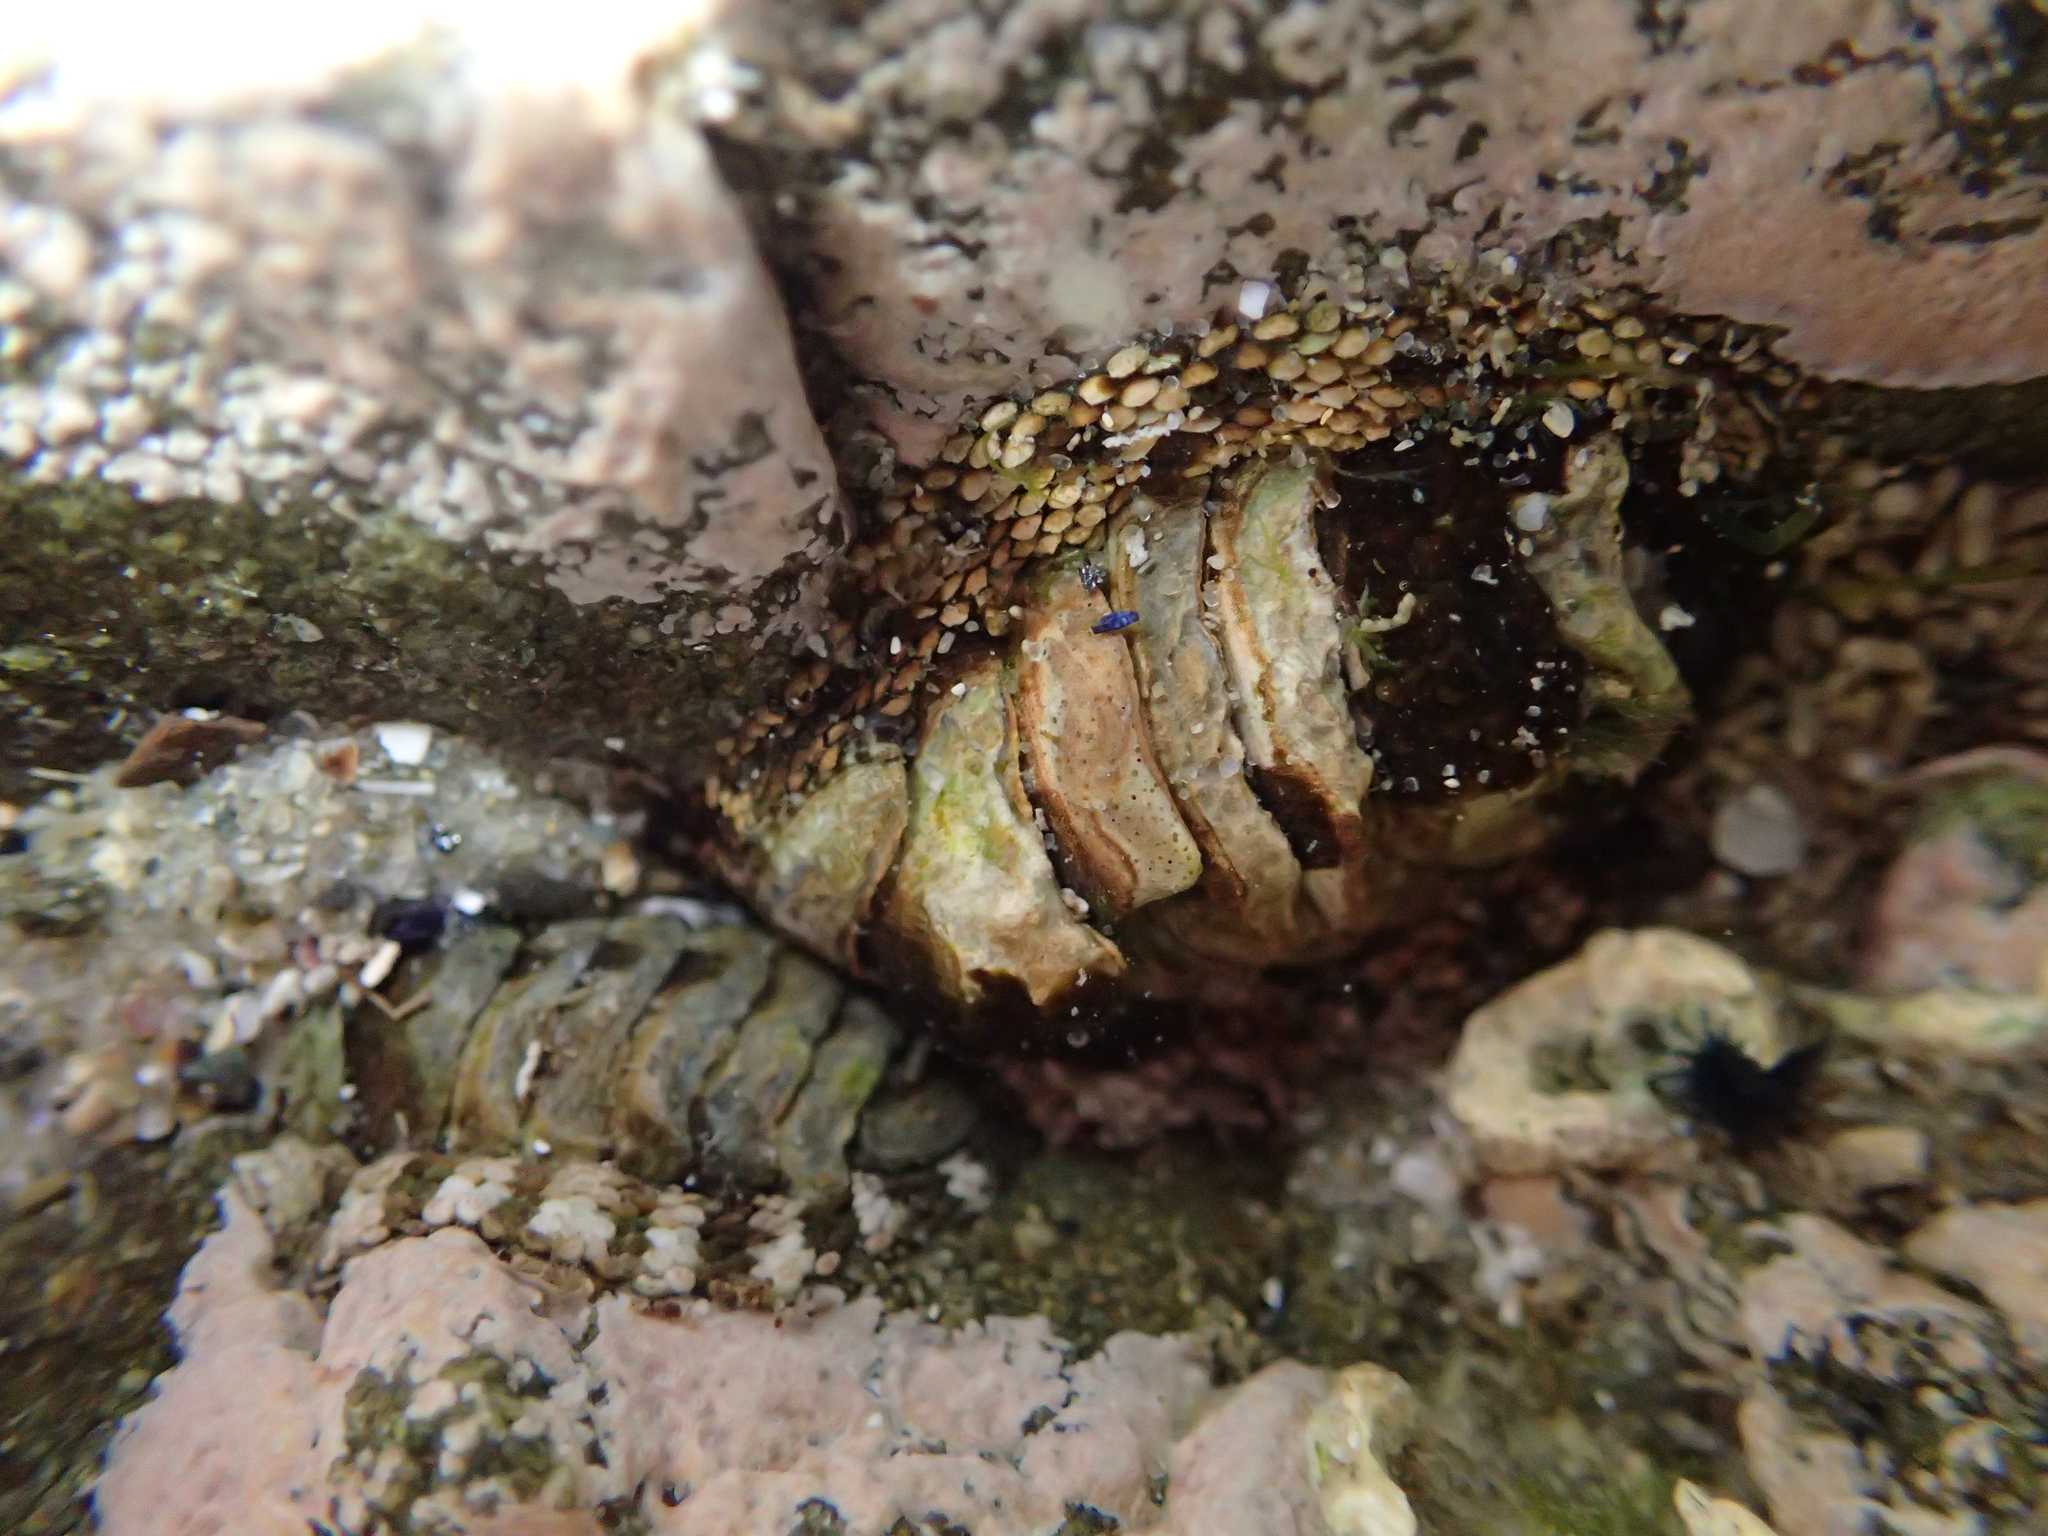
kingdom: Animalia
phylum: Mollusca
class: Polyplacophora
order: Chitonida
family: Chitonidae
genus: Sypharochiton
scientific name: Sypharochiton pelliserpentis
